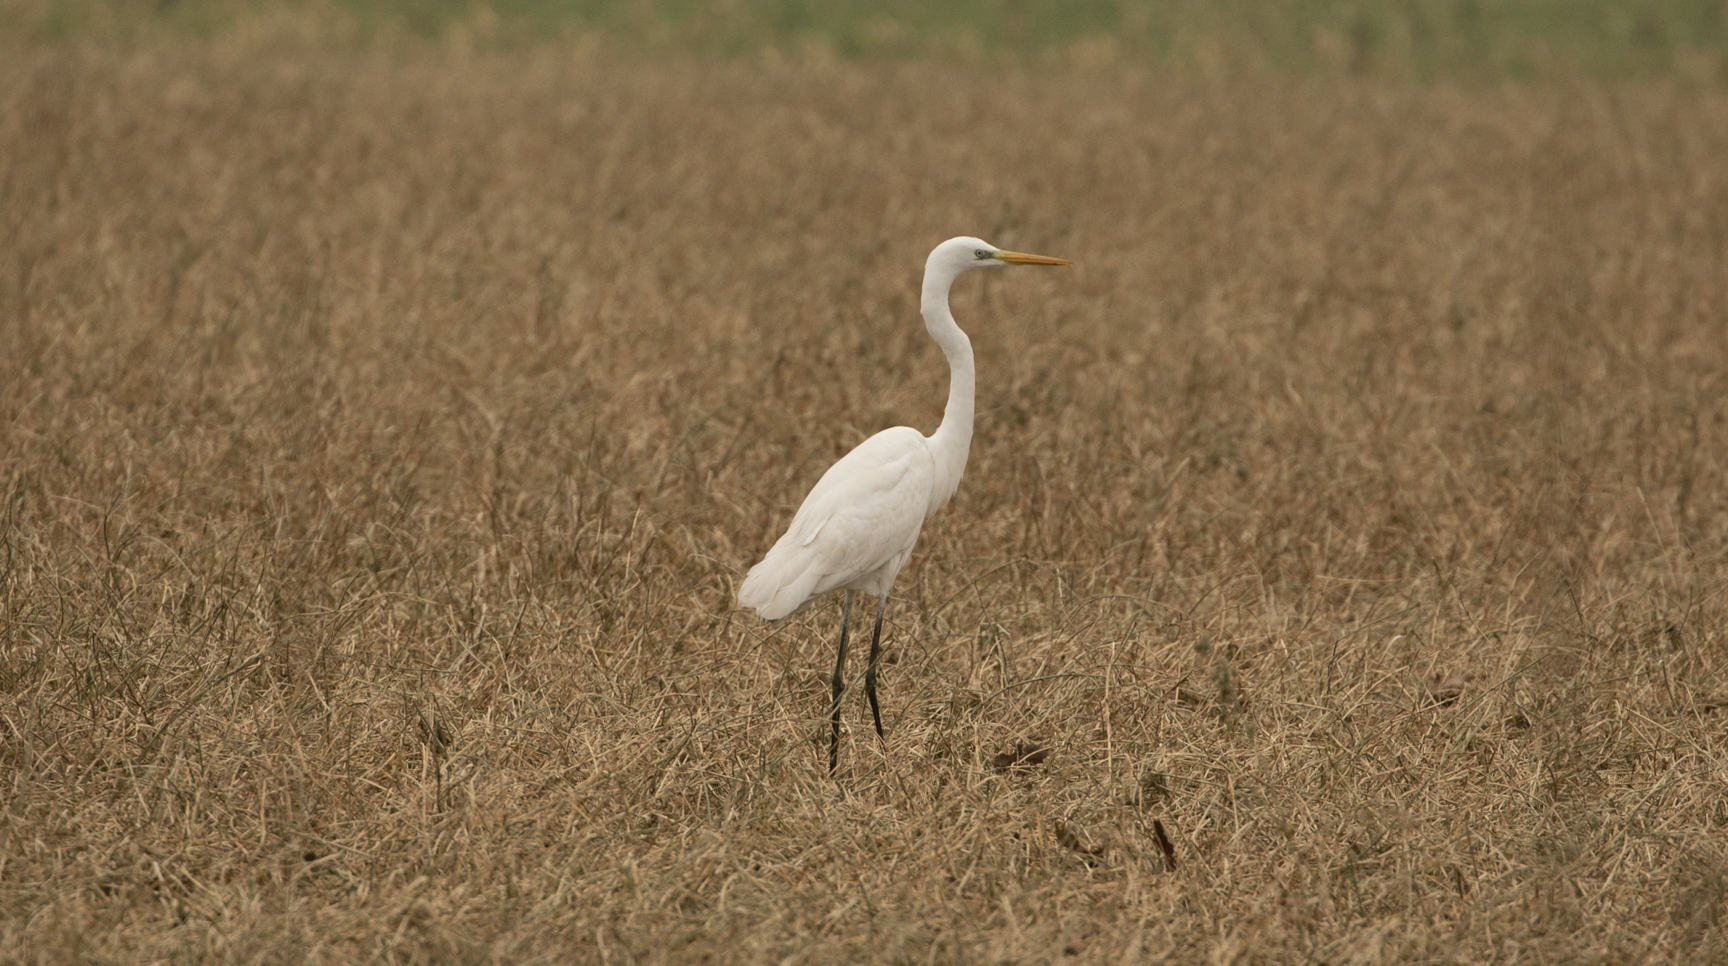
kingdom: Animalia
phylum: Chordata
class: Aves
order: Pelecaniformes
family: Ardeidae
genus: Ardea
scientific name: Ardea alba
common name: Great egret
